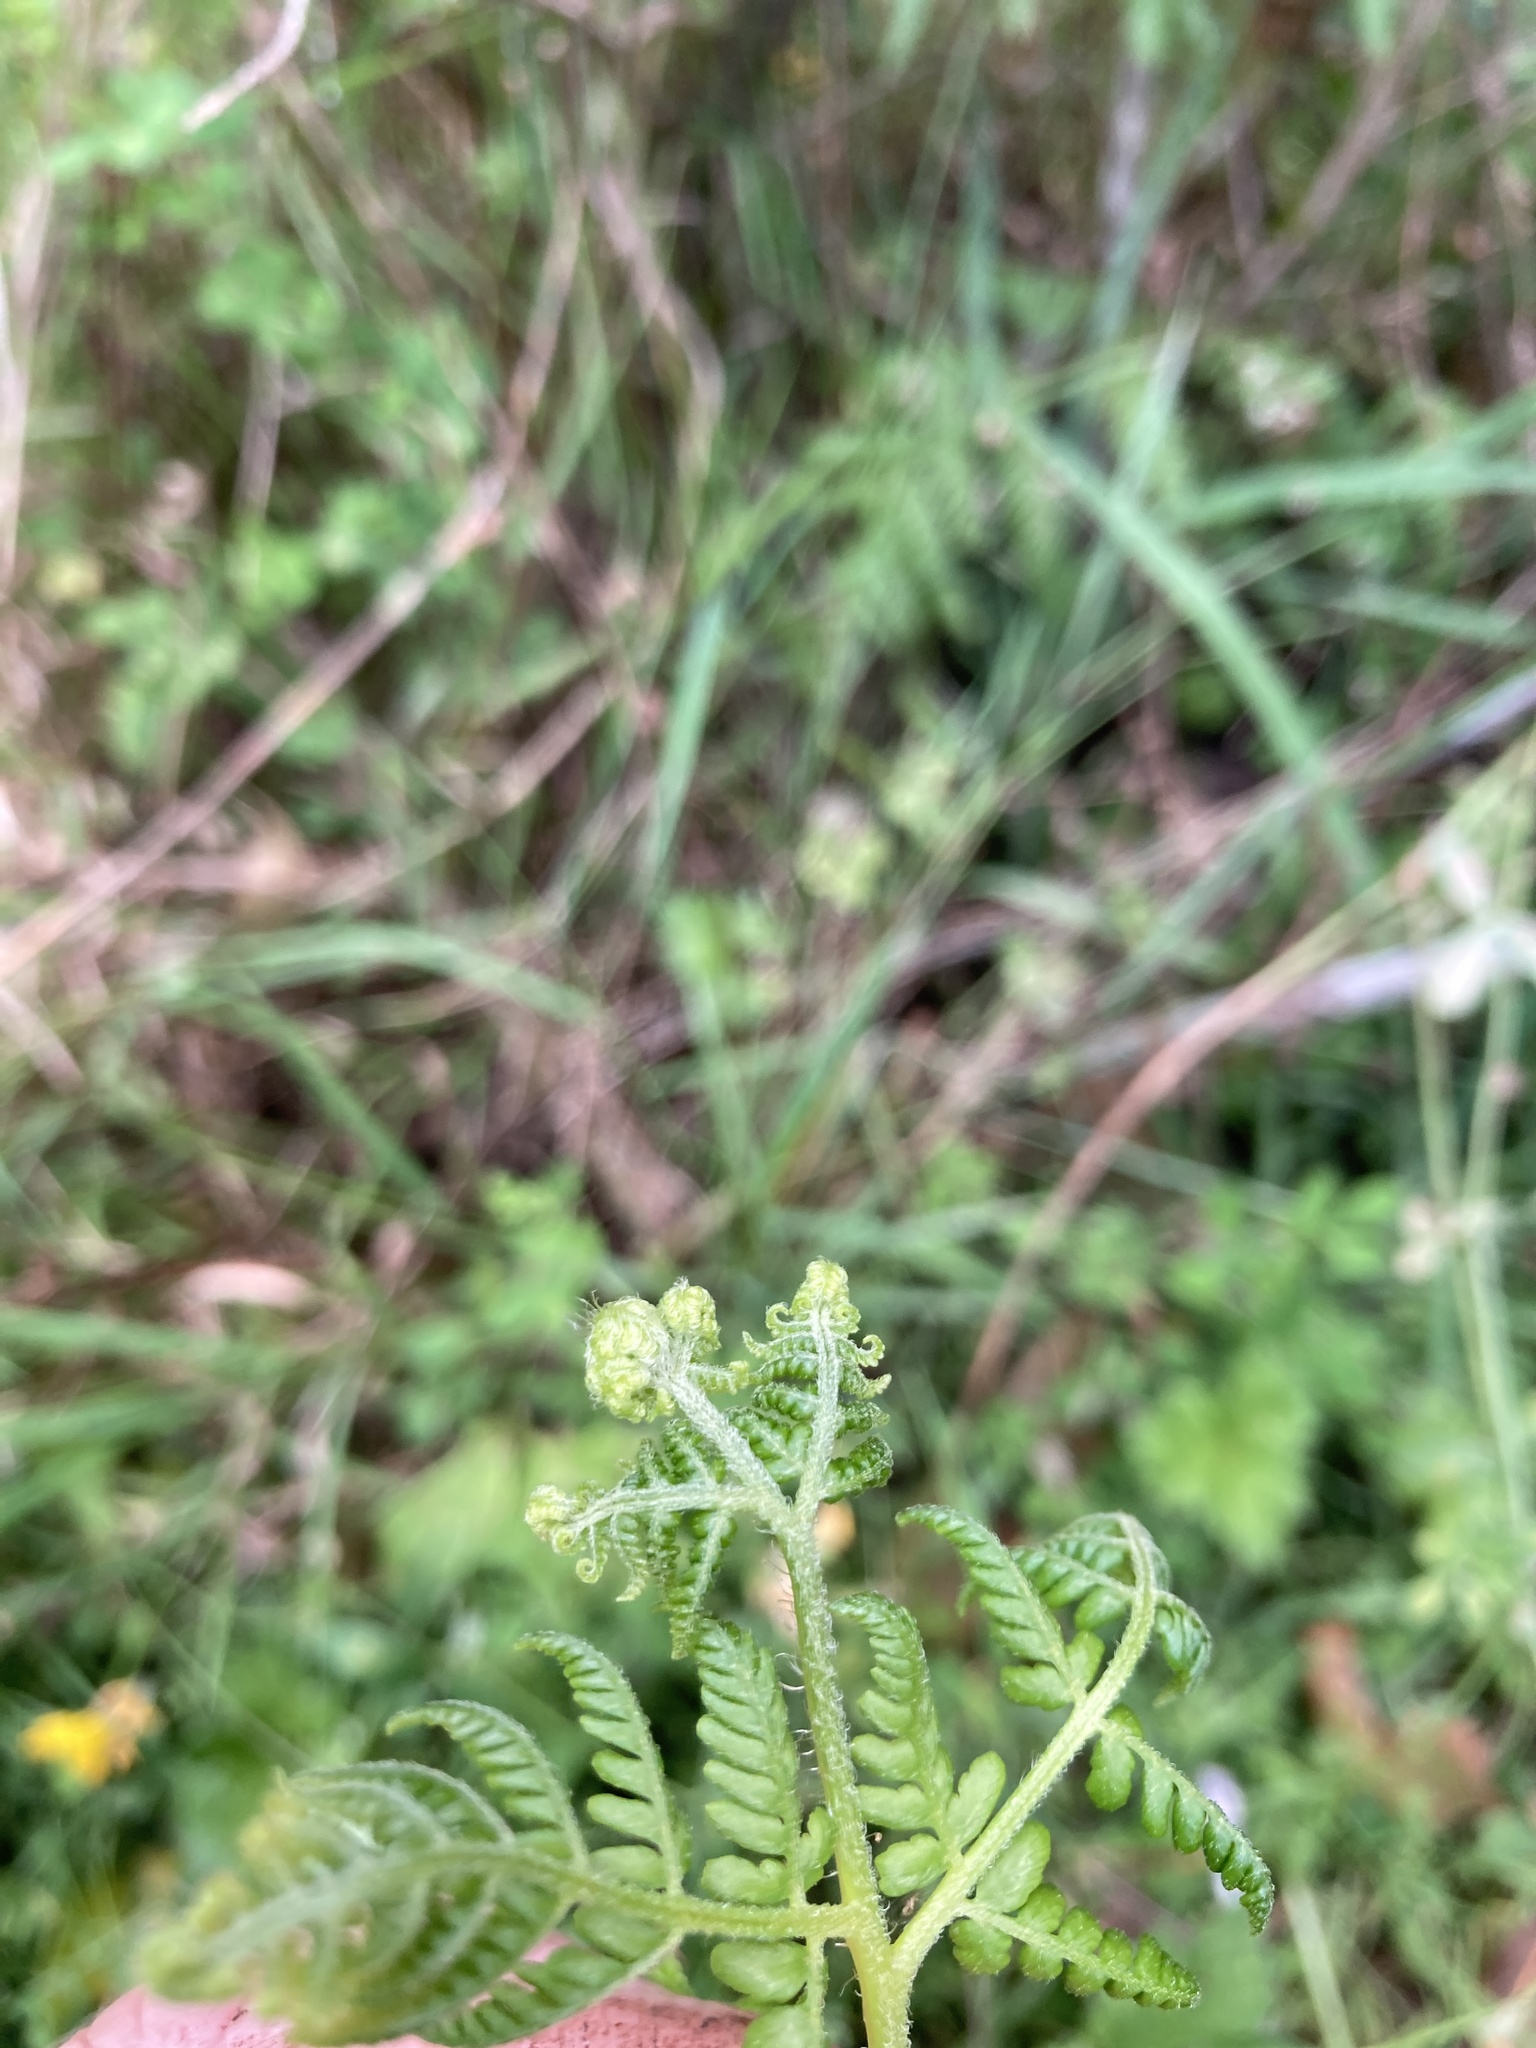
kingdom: Plantae
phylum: Tracheophyta
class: Polypodiopsida
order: Polypodiales
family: Dennstaedtiaceae
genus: Hypolepis
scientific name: Hypolepis ambigua
